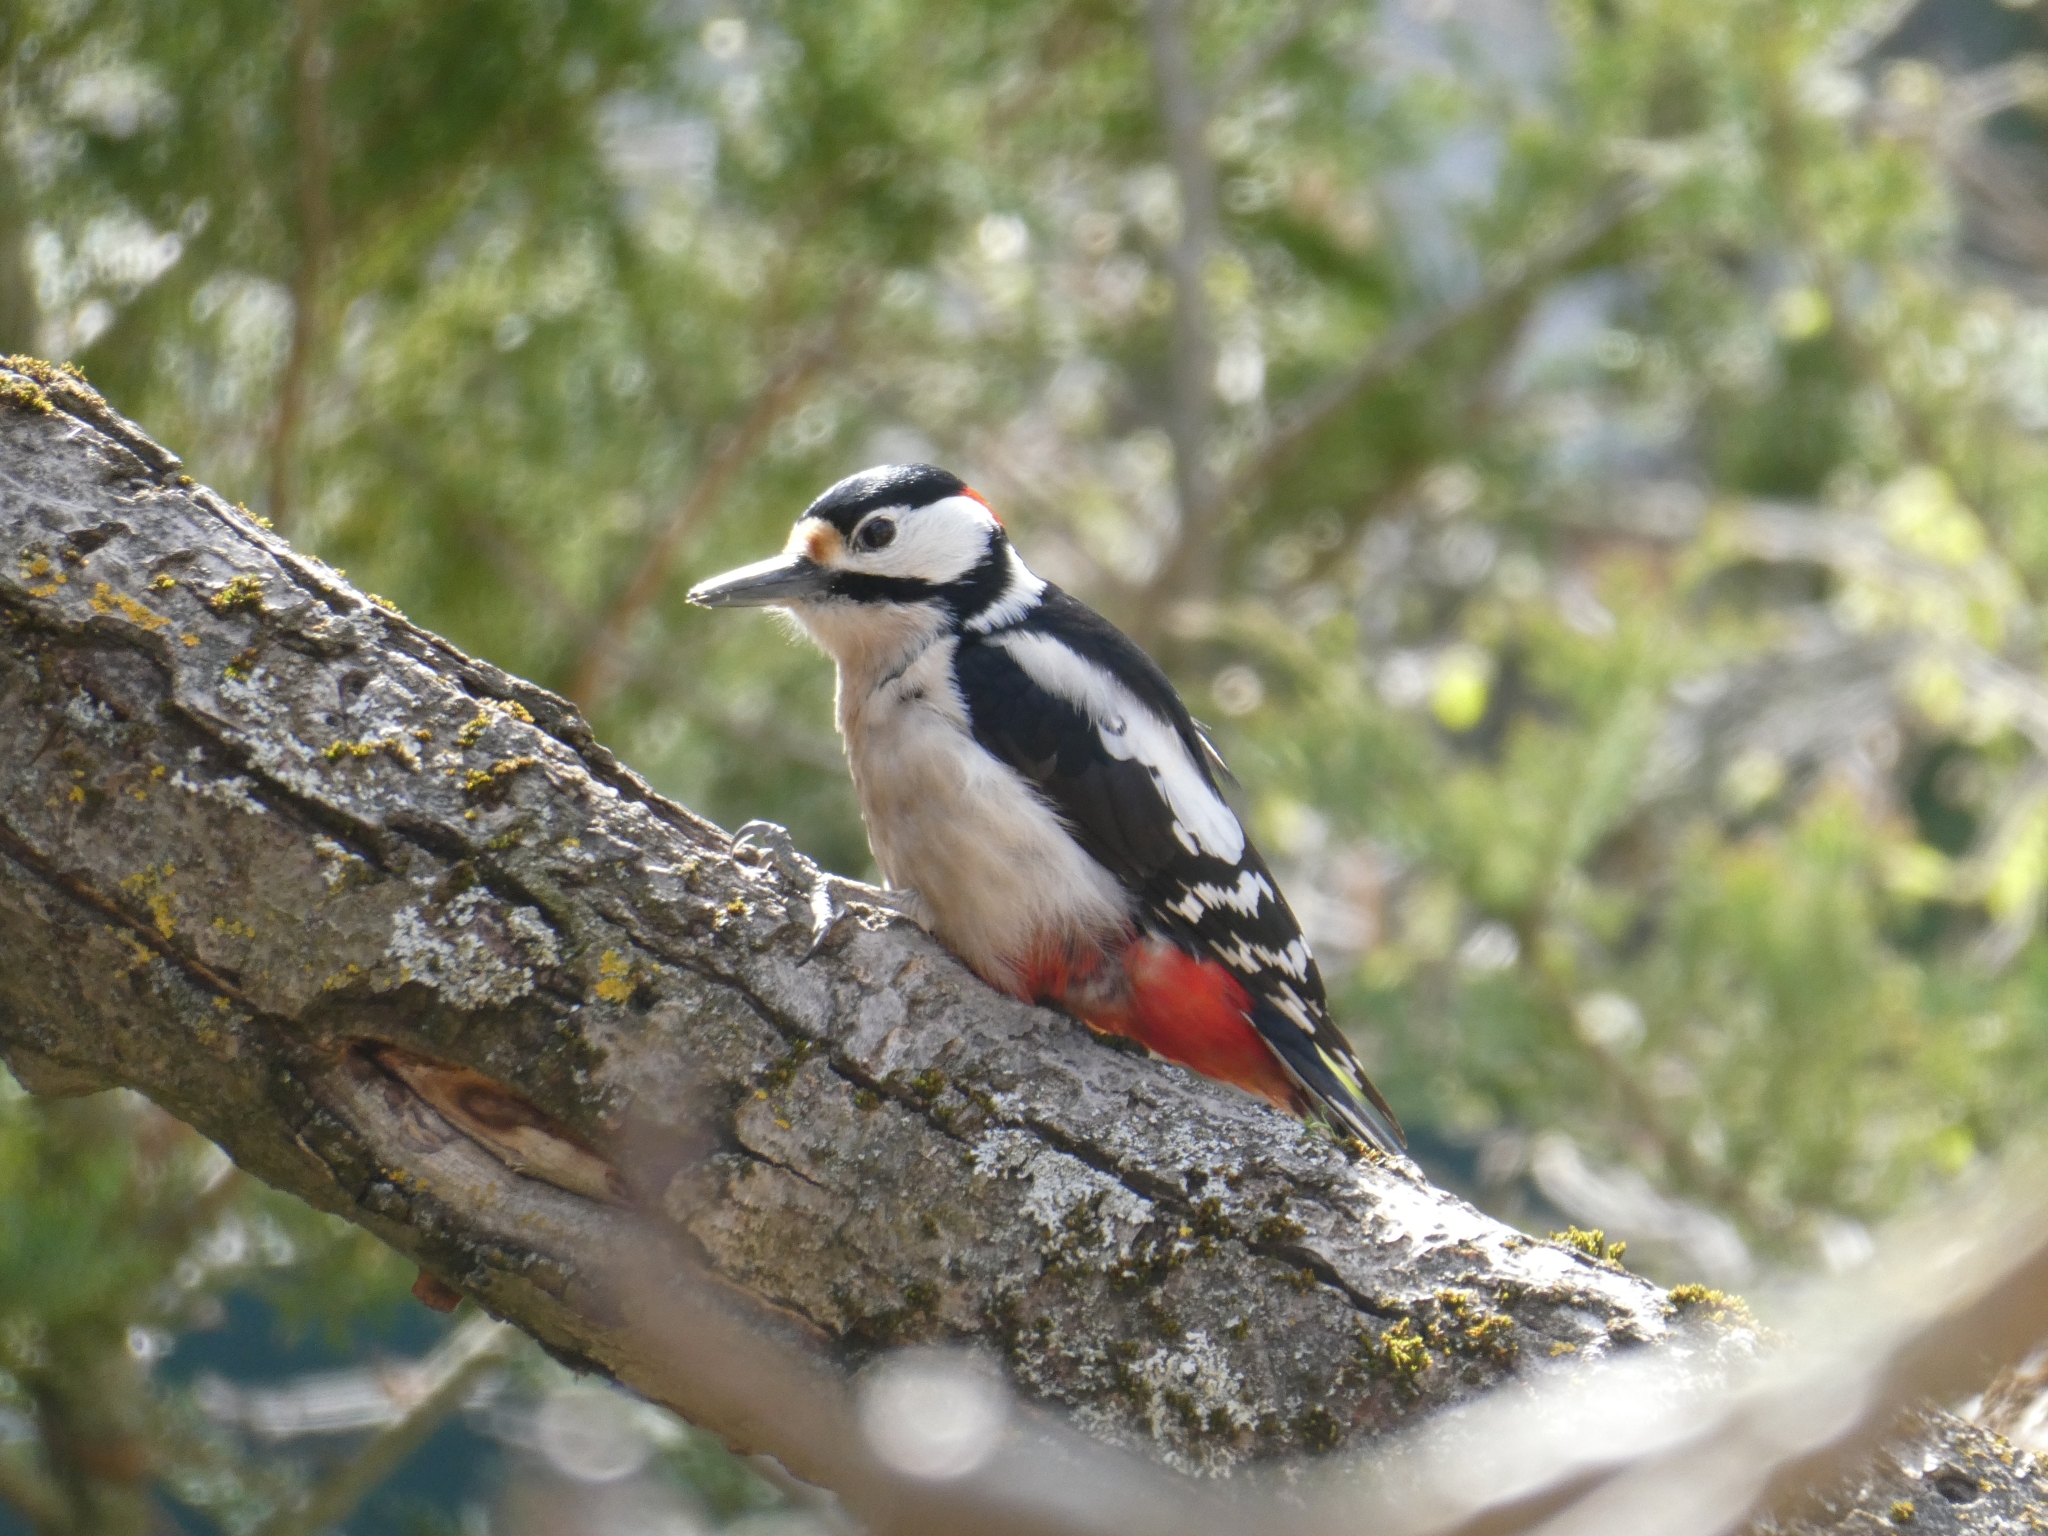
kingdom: Animalia
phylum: Chordata
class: Aves
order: Piciformes
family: Picidae
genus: Dendrocopos
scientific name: Dendrocopos major
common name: Great spotted woodpecker
